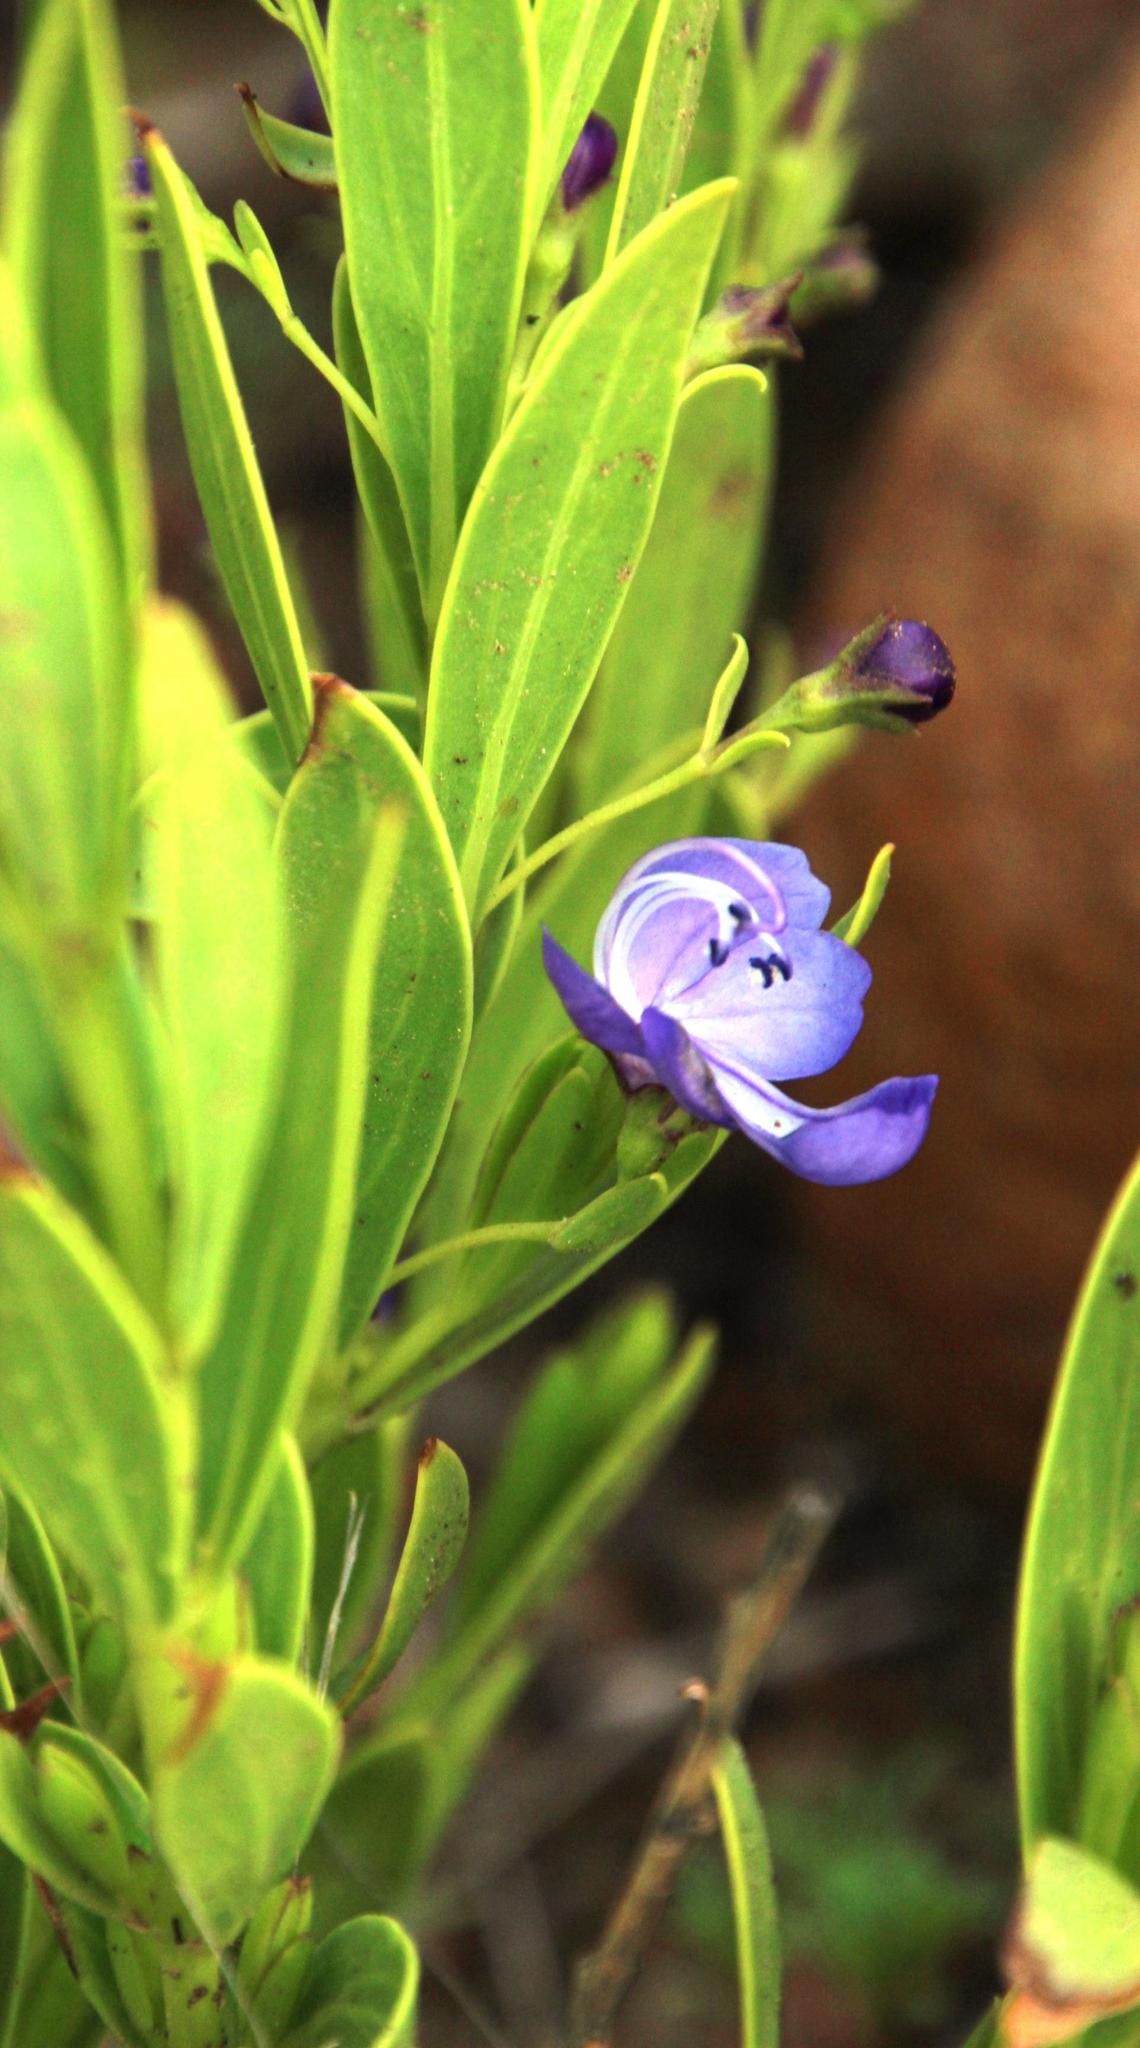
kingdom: Plantae
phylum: Tracheophyta
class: Magnoliopsida
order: Lamiales
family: Lamiaceae
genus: Rotheca
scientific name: Rotheca hirsuta
